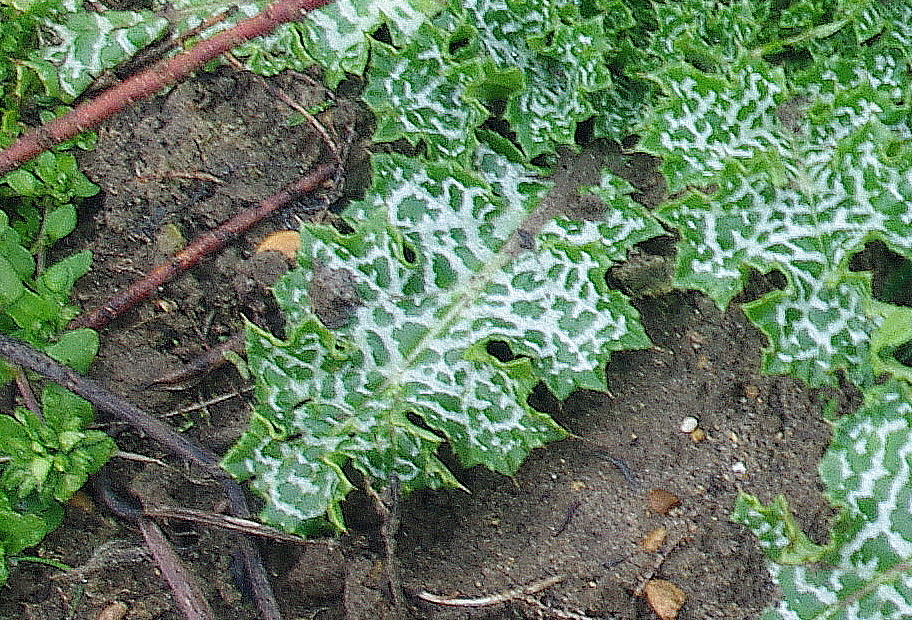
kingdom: Plantae
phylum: Tracheophyta
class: Magnoliopsida
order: Asterales
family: Asteraceae
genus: Silybum
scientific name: Silybum marianum
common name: Milk thistle
